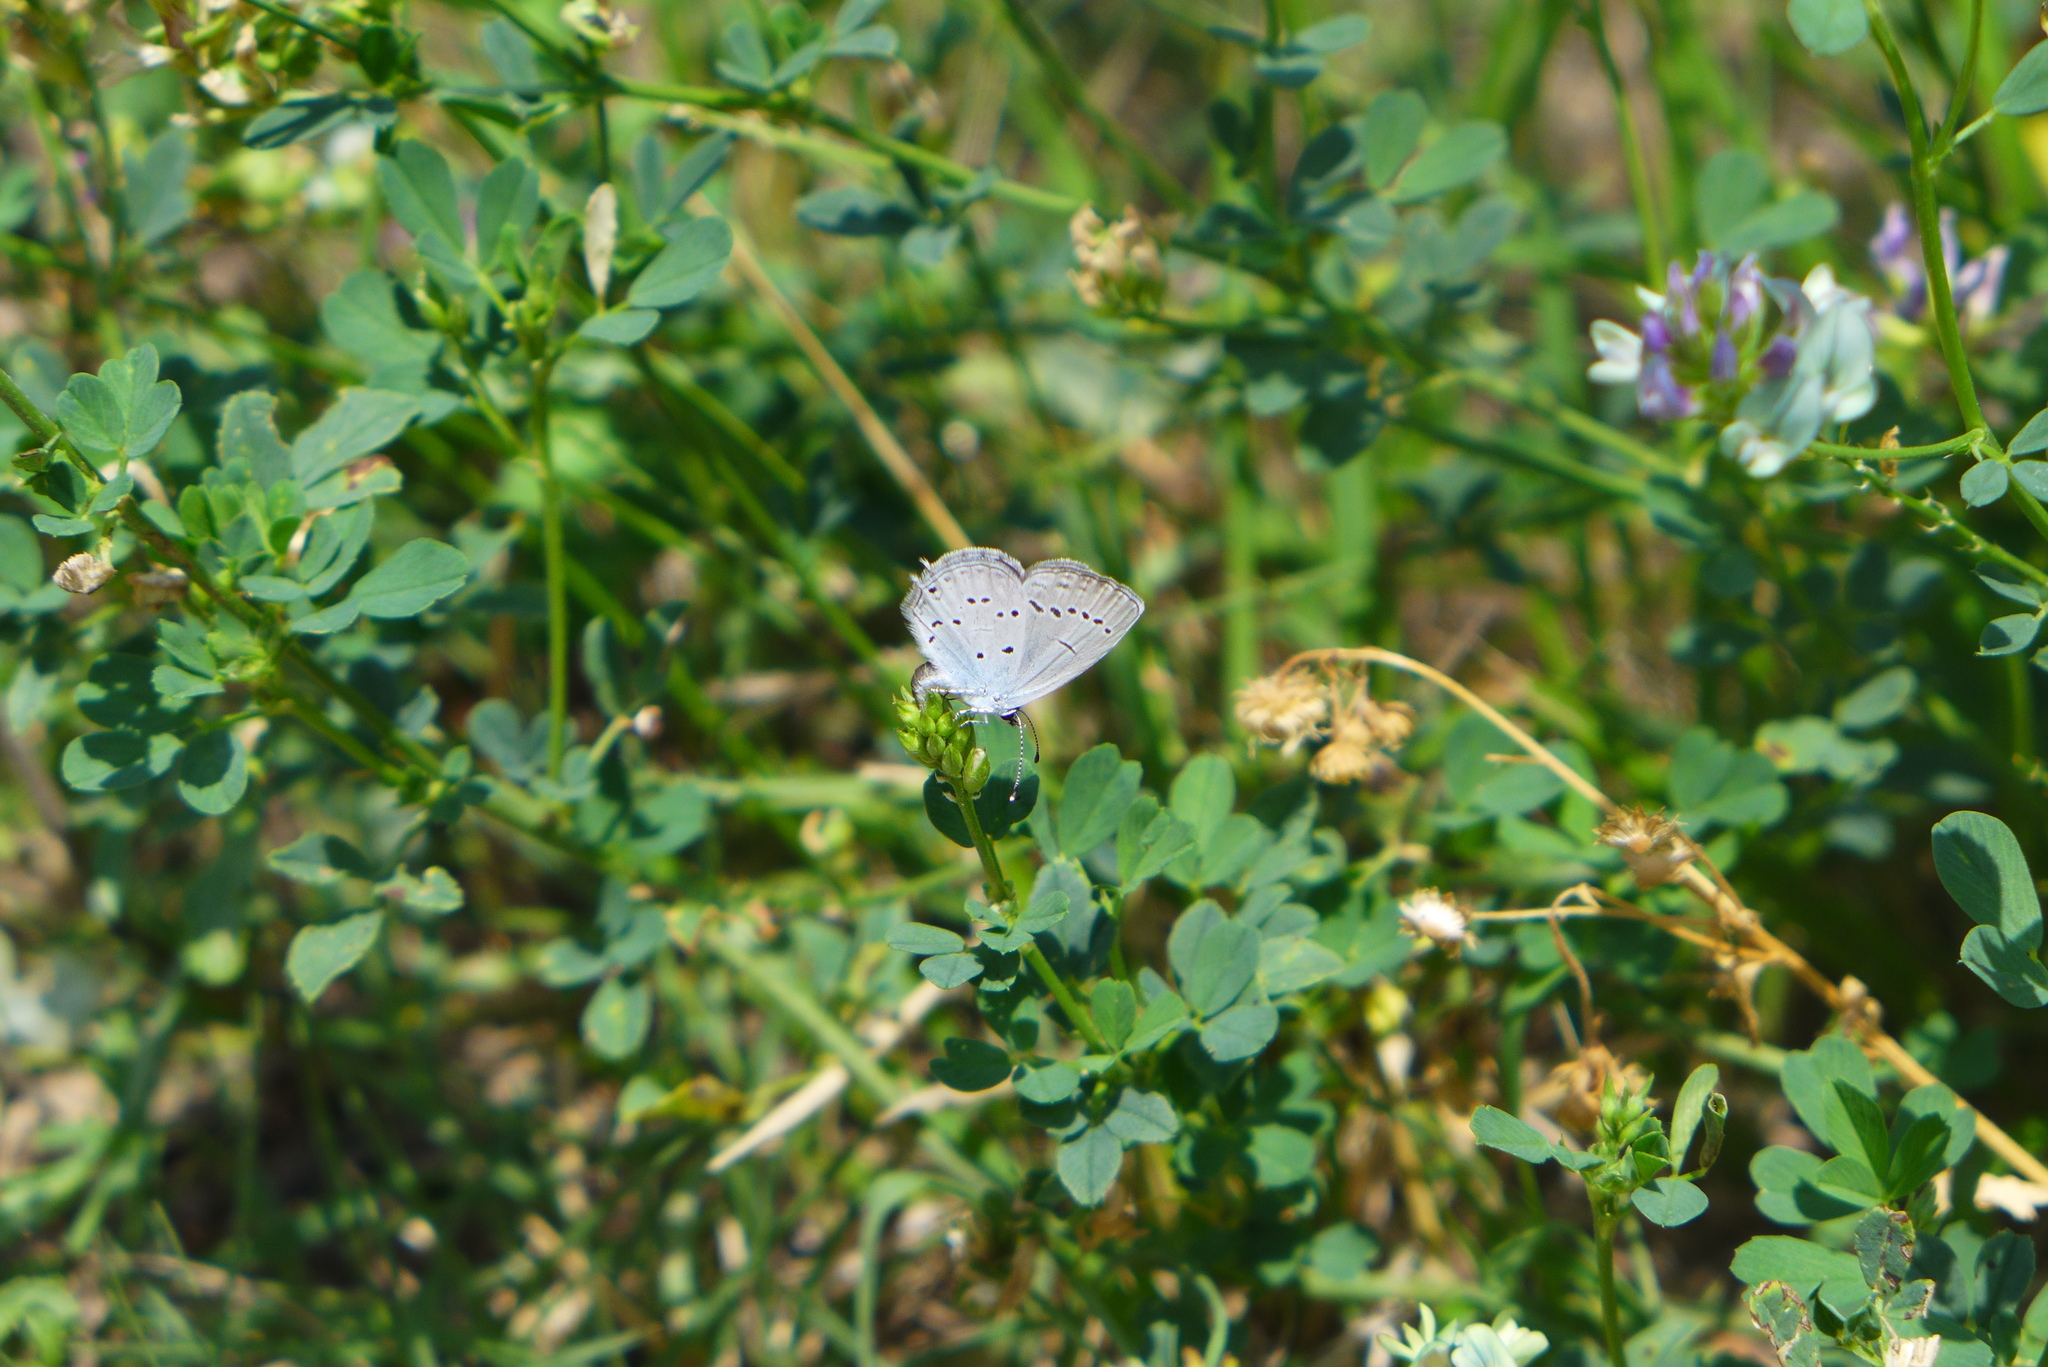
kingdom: Animalia
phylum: Arthropoda
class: Insecta
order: Lepidoptera
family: Lycaenidae
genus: Elkalyce
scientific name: Elkalyce alcetas
